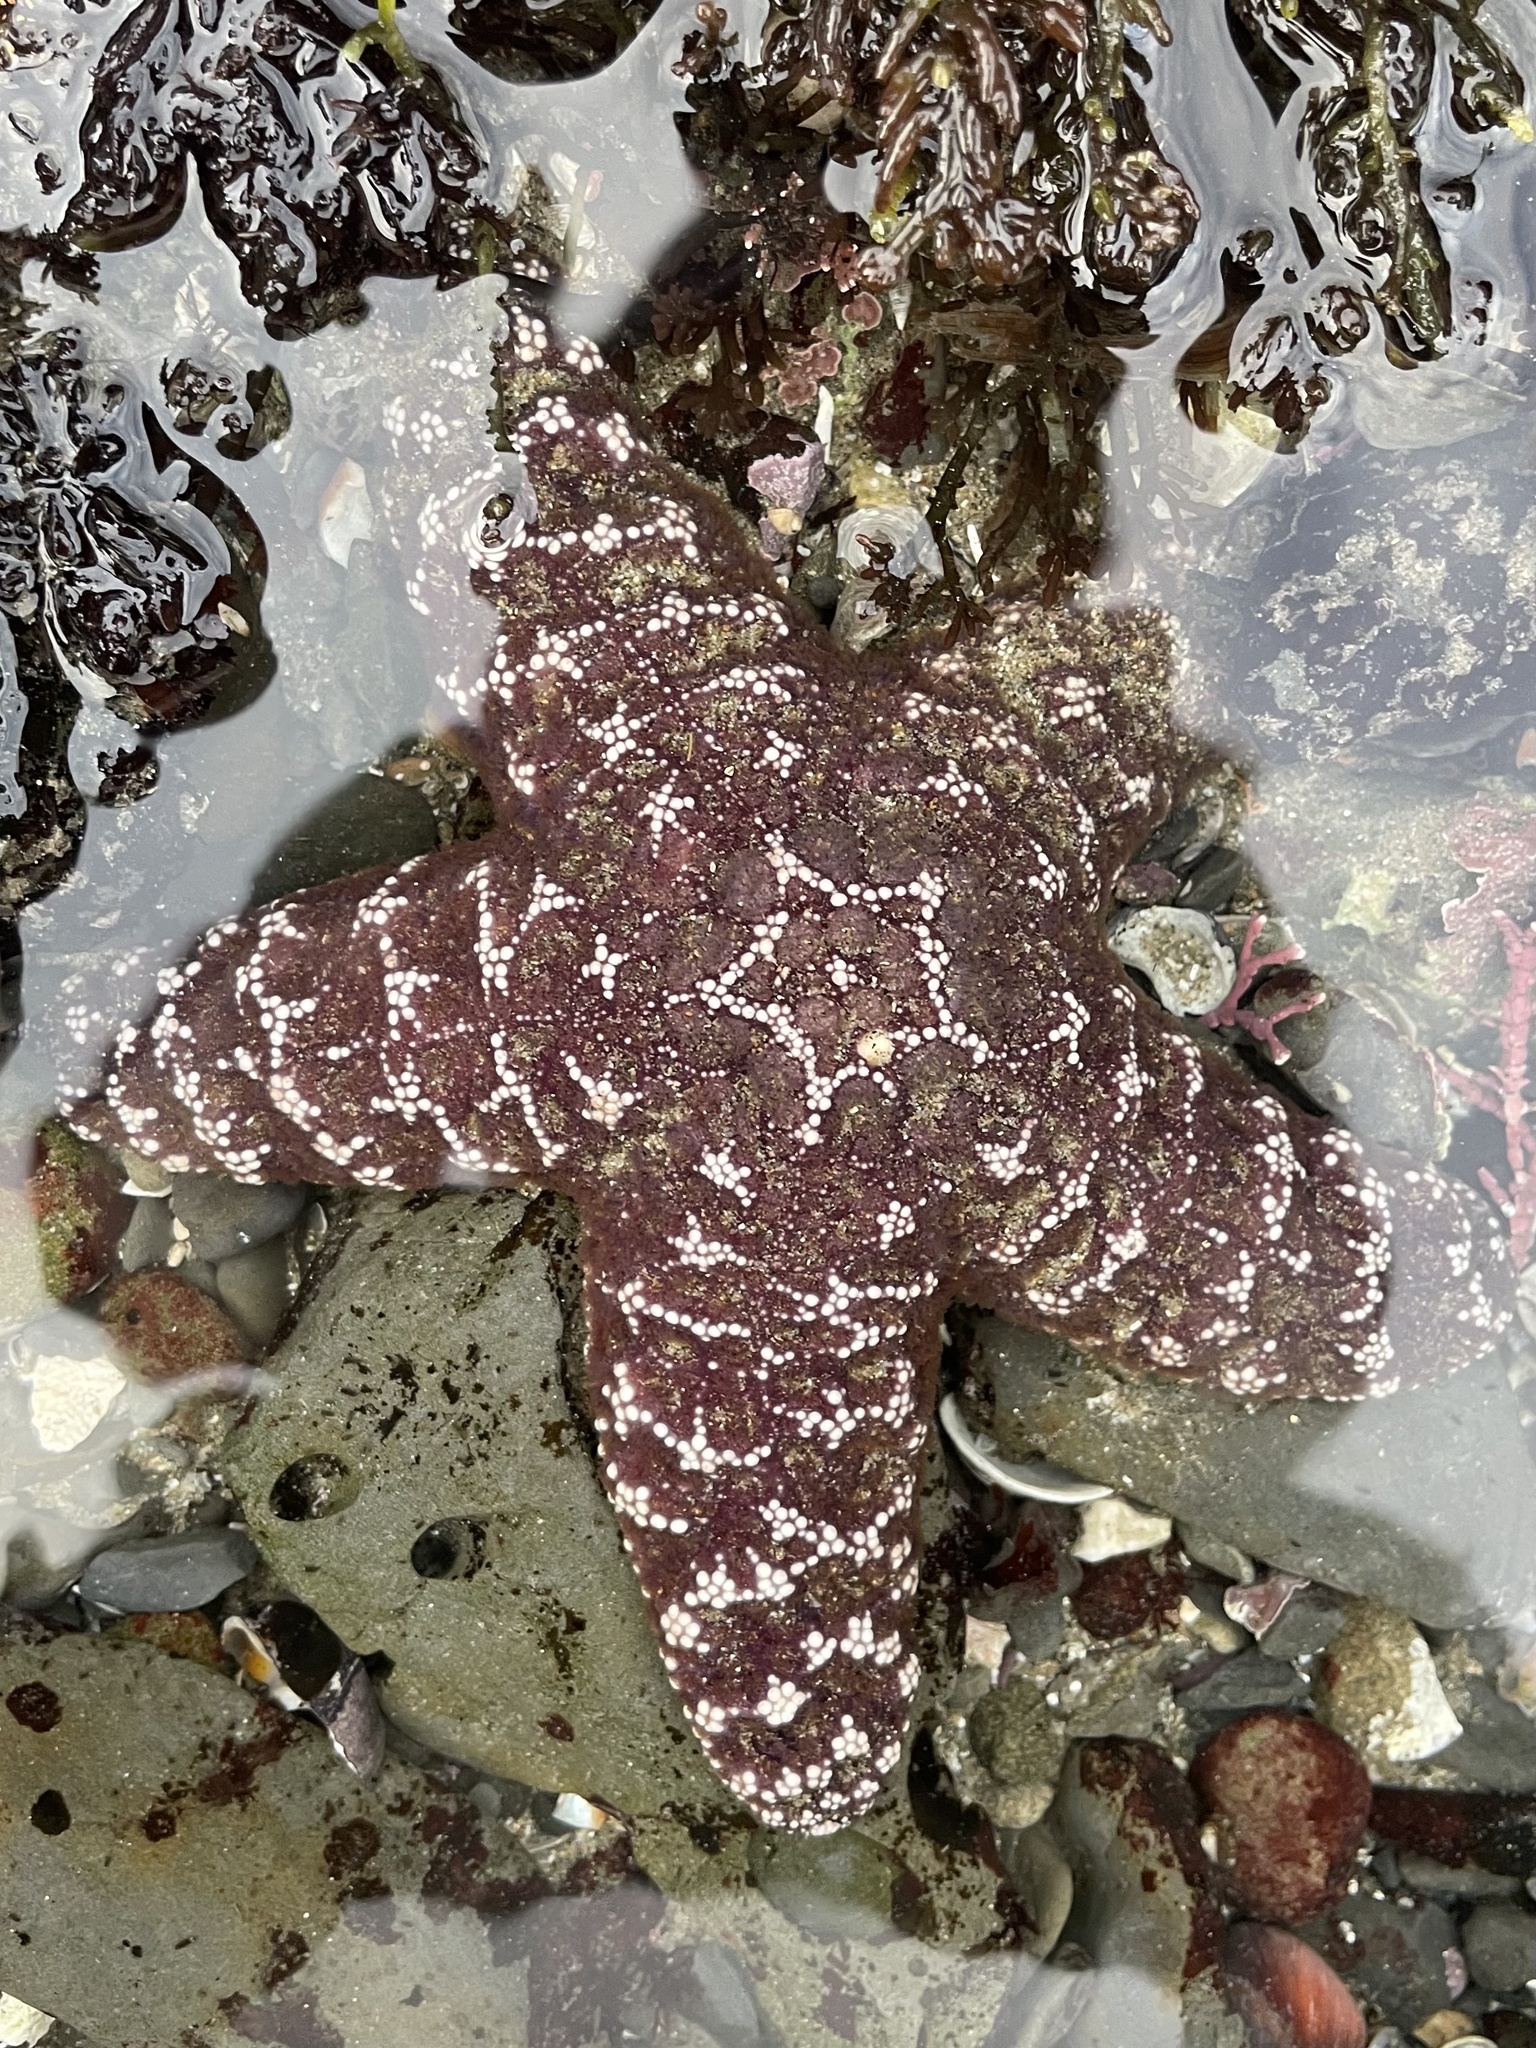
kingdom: Animalia
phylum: Echinodermata
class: Asteroidea
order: Forcipulatida
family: Asteriidae
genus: Pisaster
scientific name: Pisaster ochraceus
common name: Ochre stars
